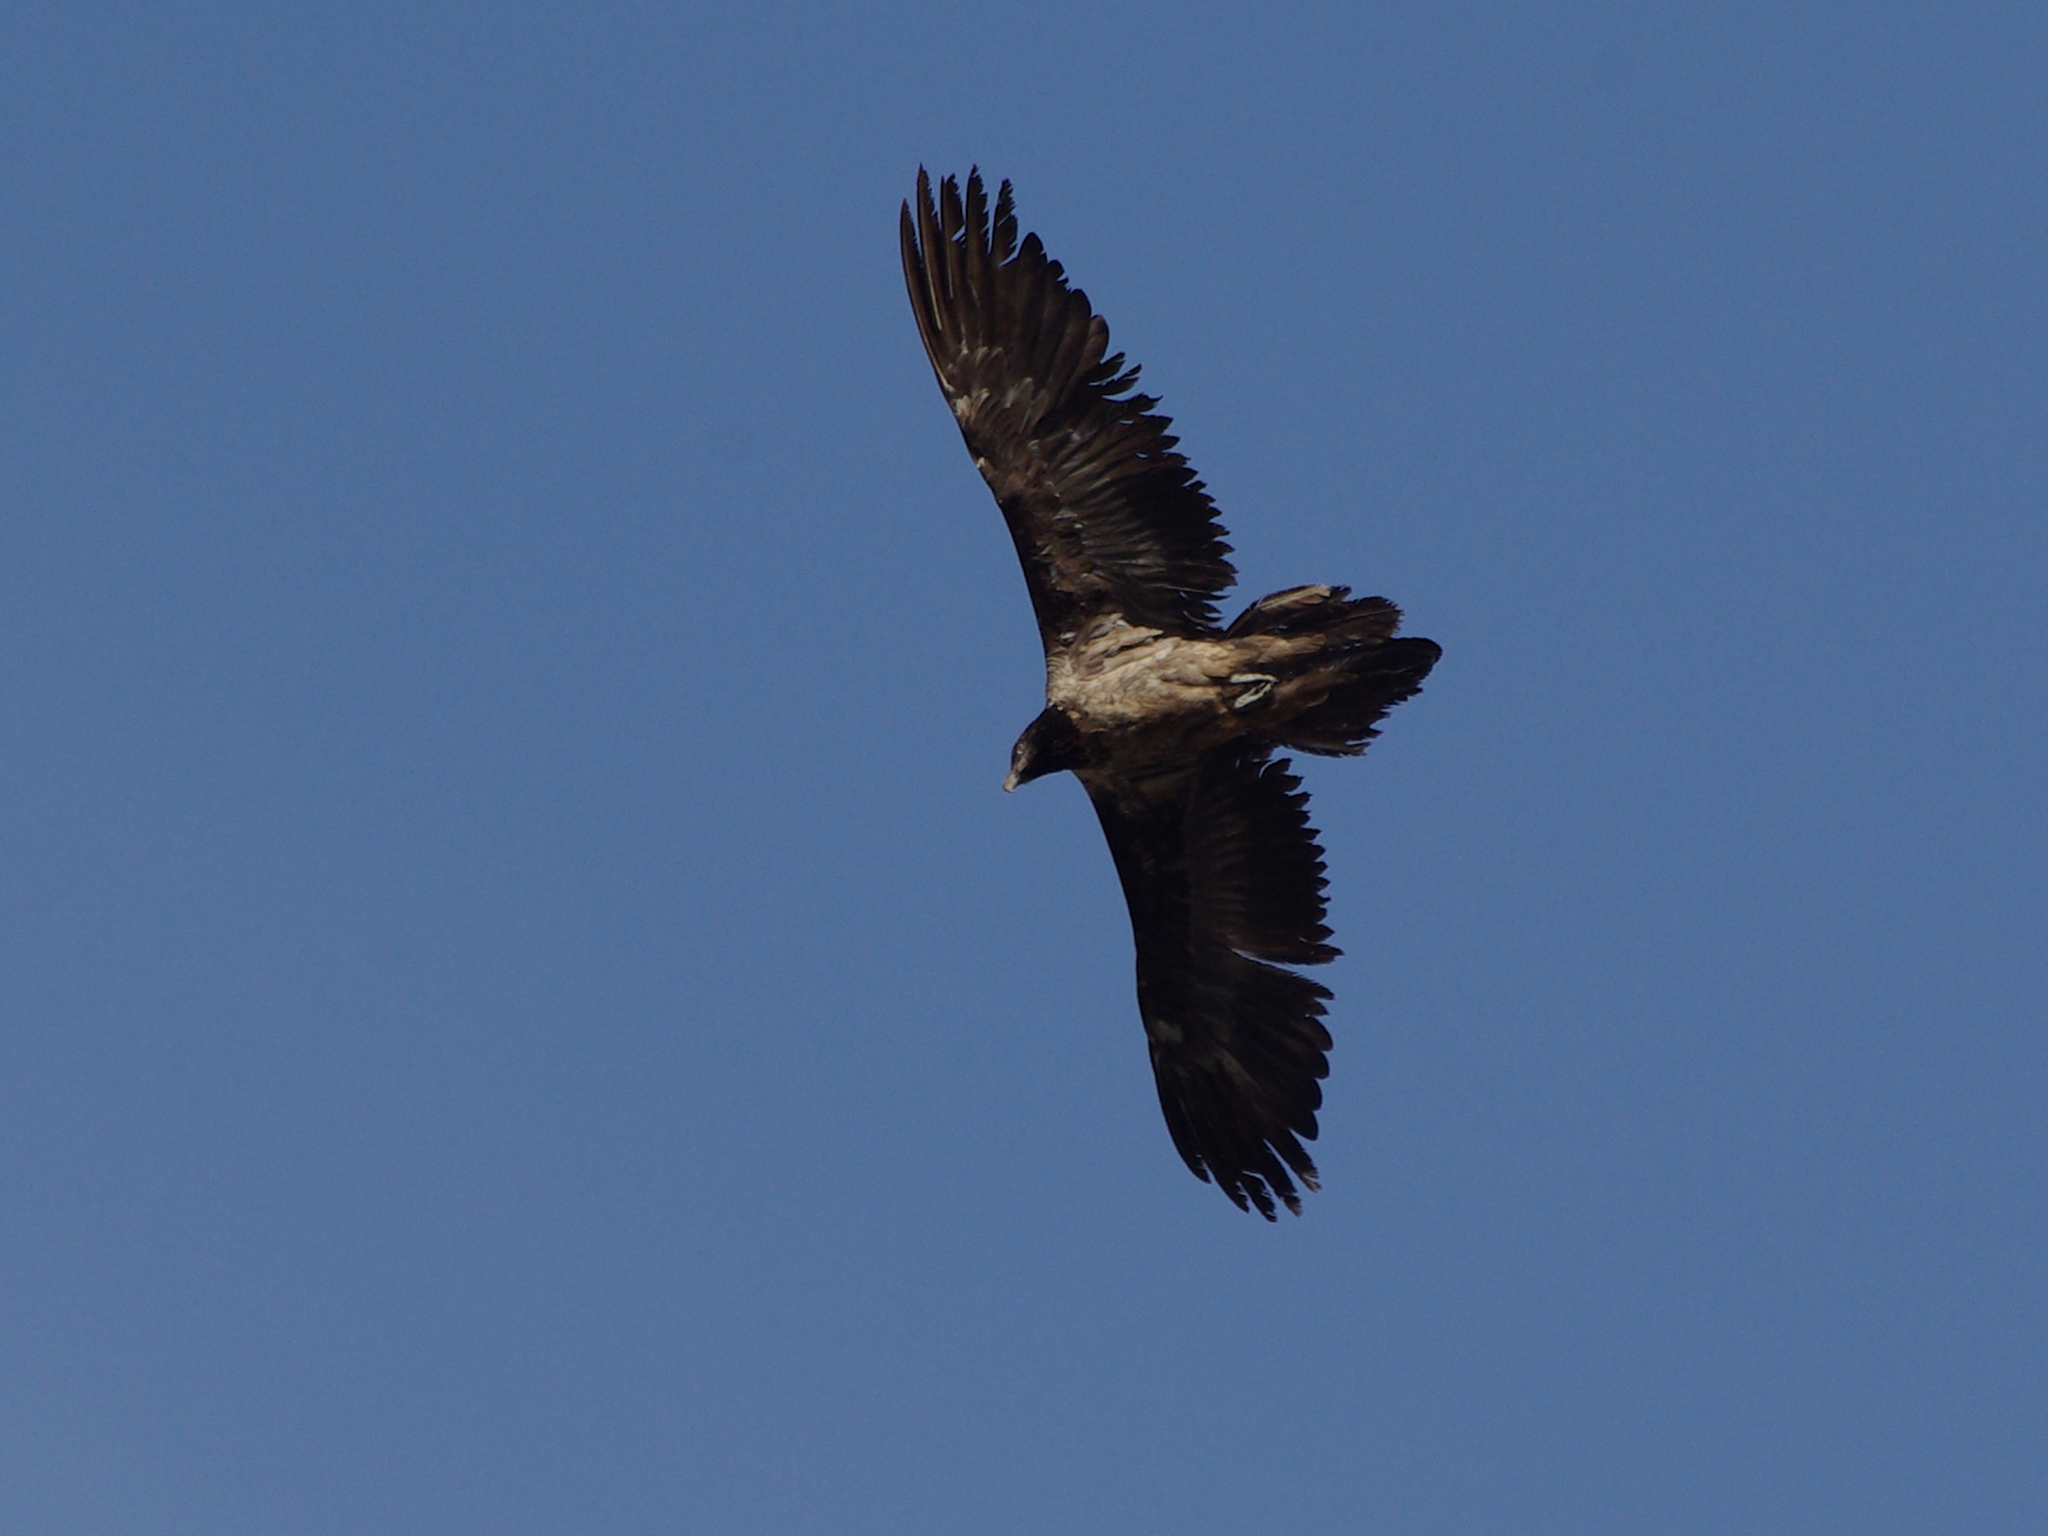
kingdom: Animalia
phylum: Chordata
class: Aves
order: Accipitriformes
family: Accipitridae
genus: Gypaetus
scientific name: Gypaetus barbatus
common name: Bearded vulture
